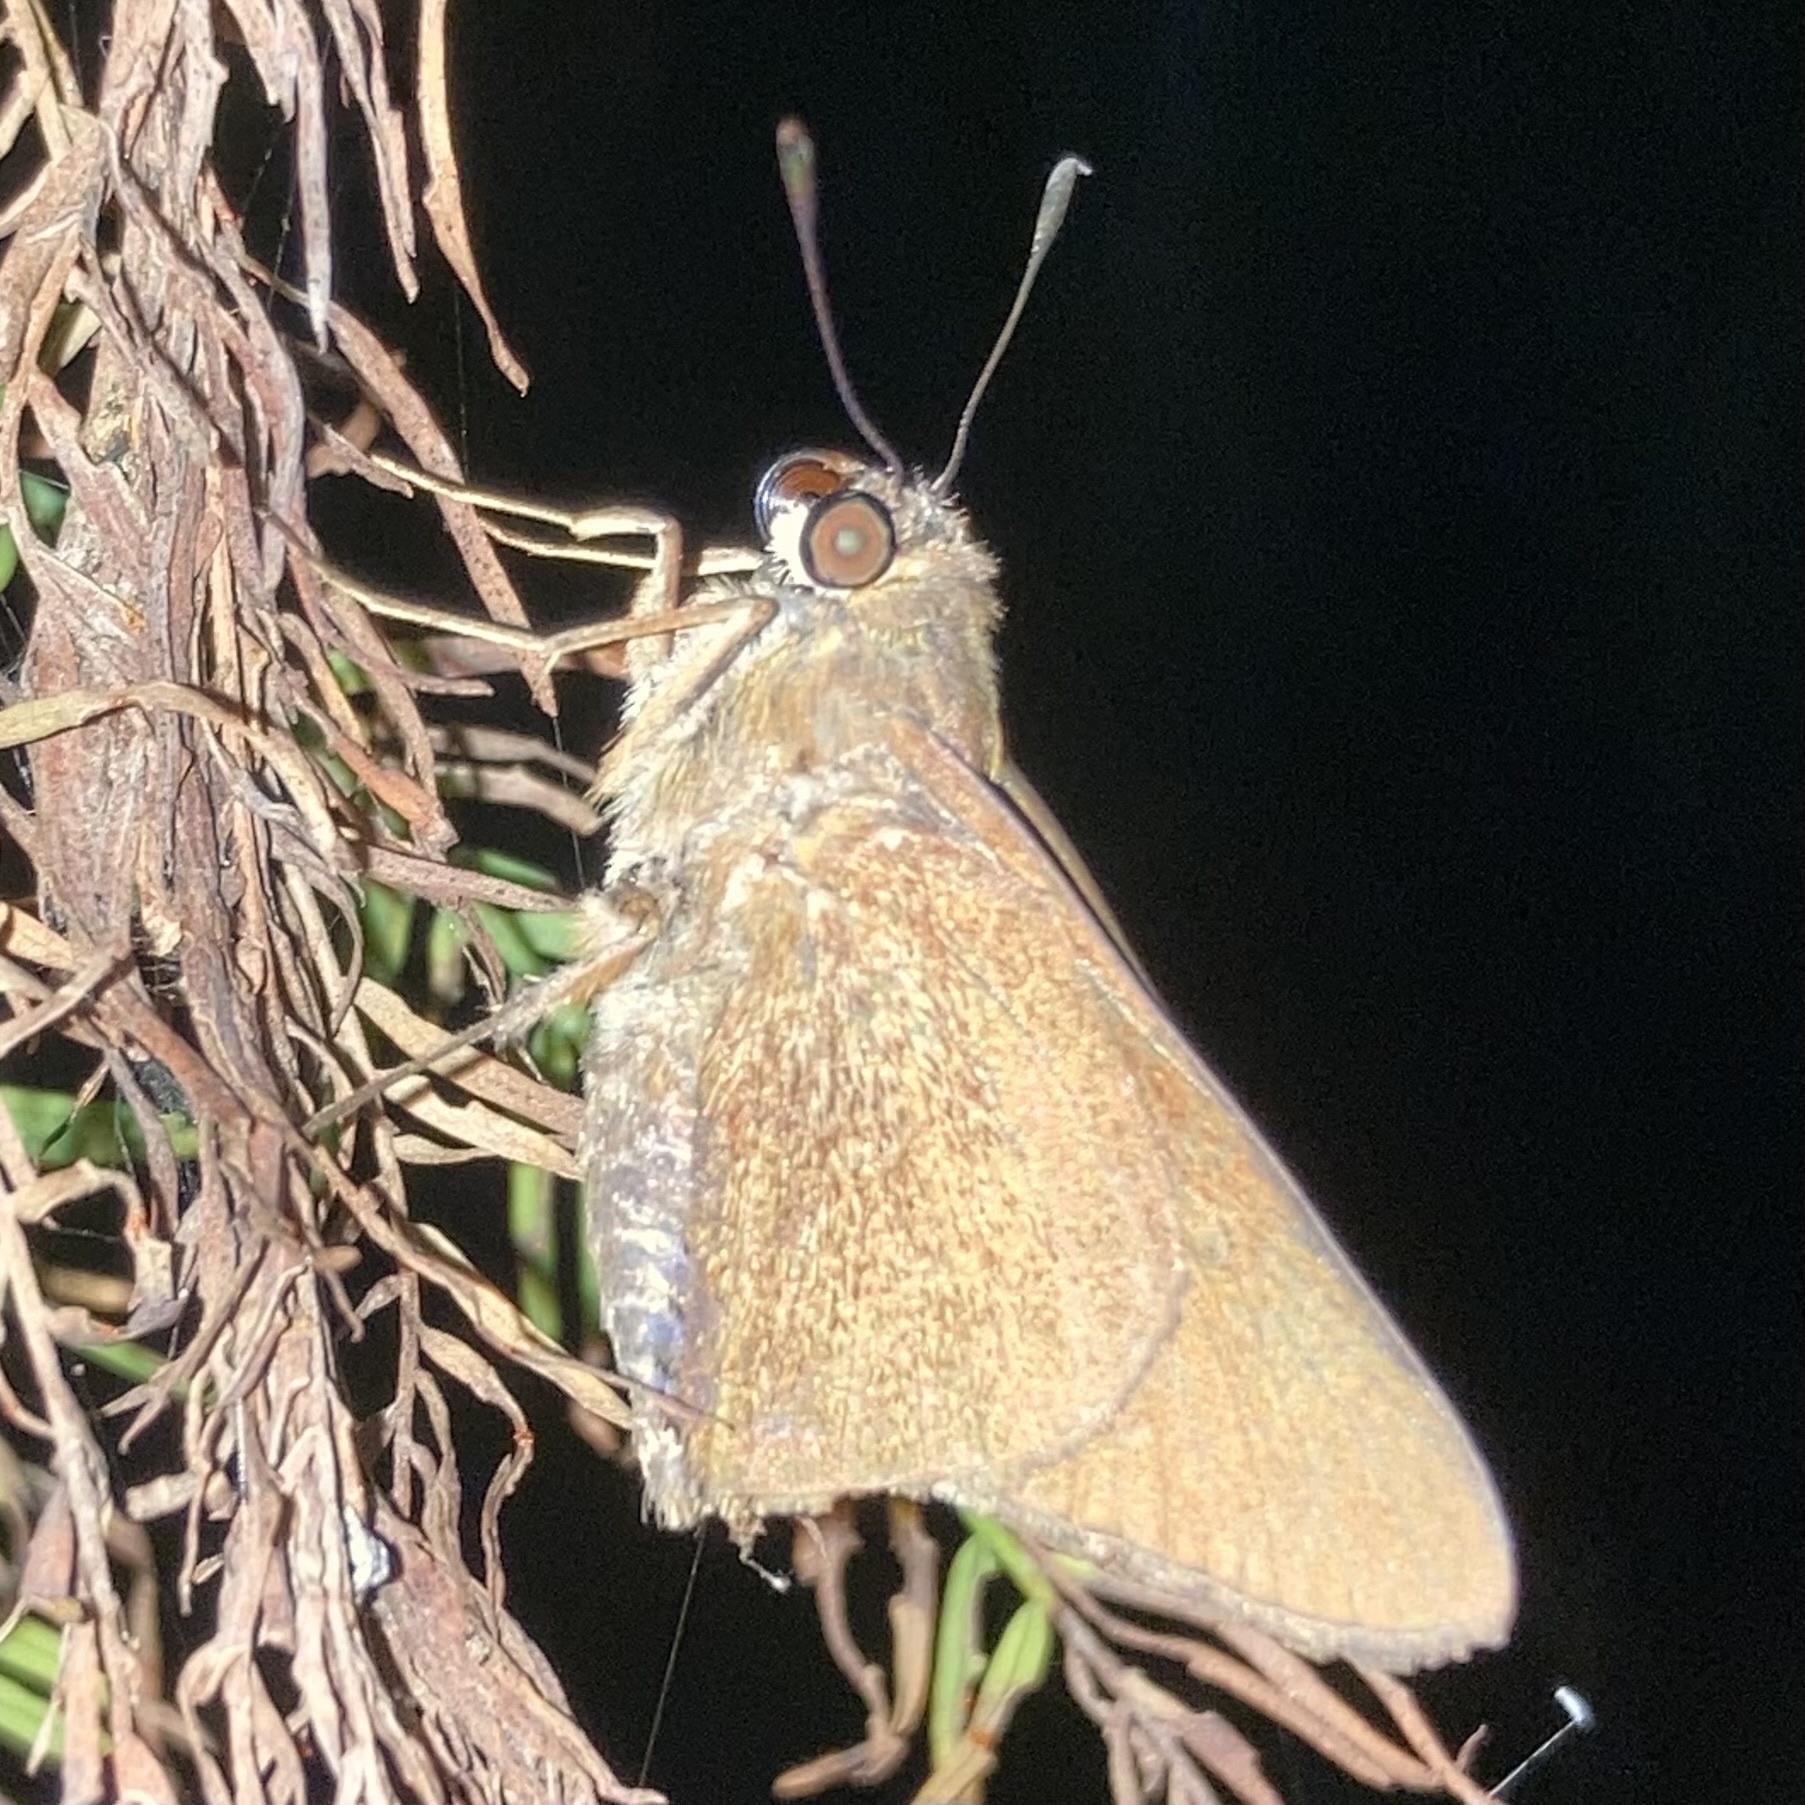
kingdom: Animalia
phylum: Arthropoda
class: Insecta
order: Lepidoptera
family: Hesperiidae
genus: Asbolis
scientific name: Asbolis capucinus
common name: Monk skipper
